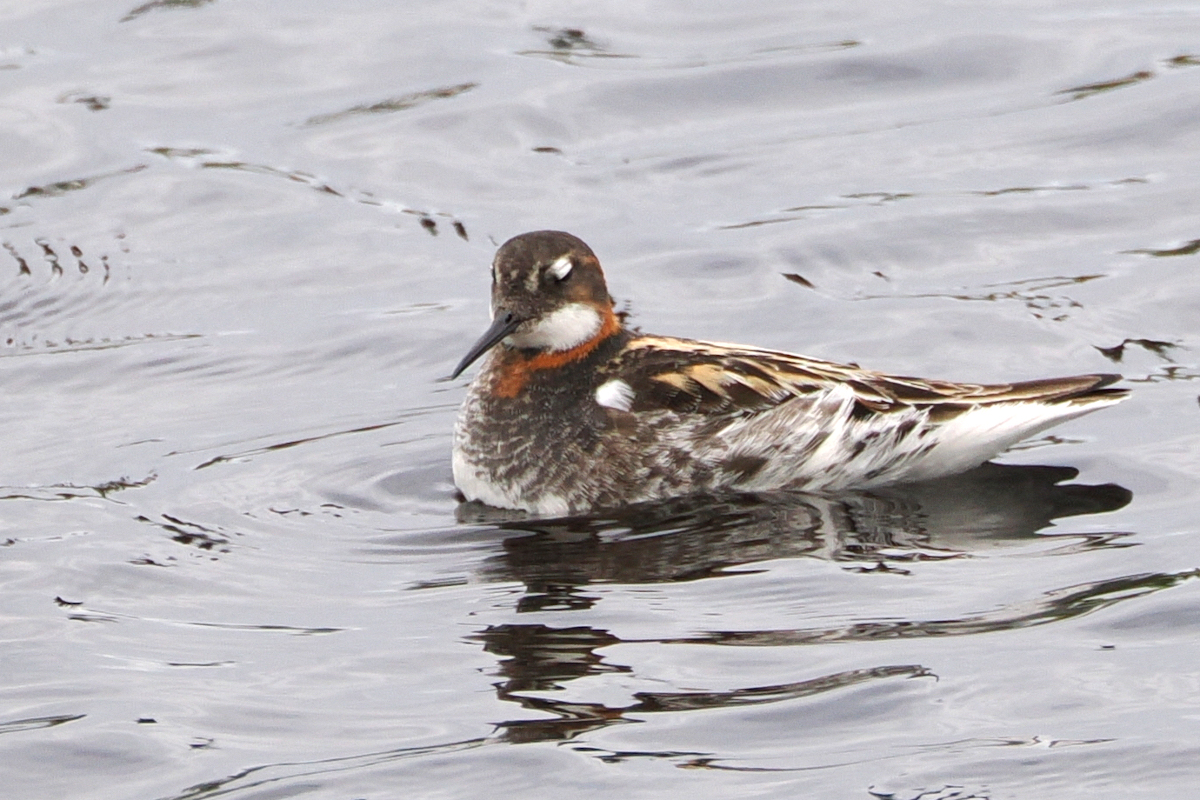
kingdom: Animalia
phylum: Chordata
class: Aves
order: Charadriiformes
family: Scolopacidae
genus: Phalaropus
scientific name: Phalaropus lobatus
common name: Red-necked phalarope
